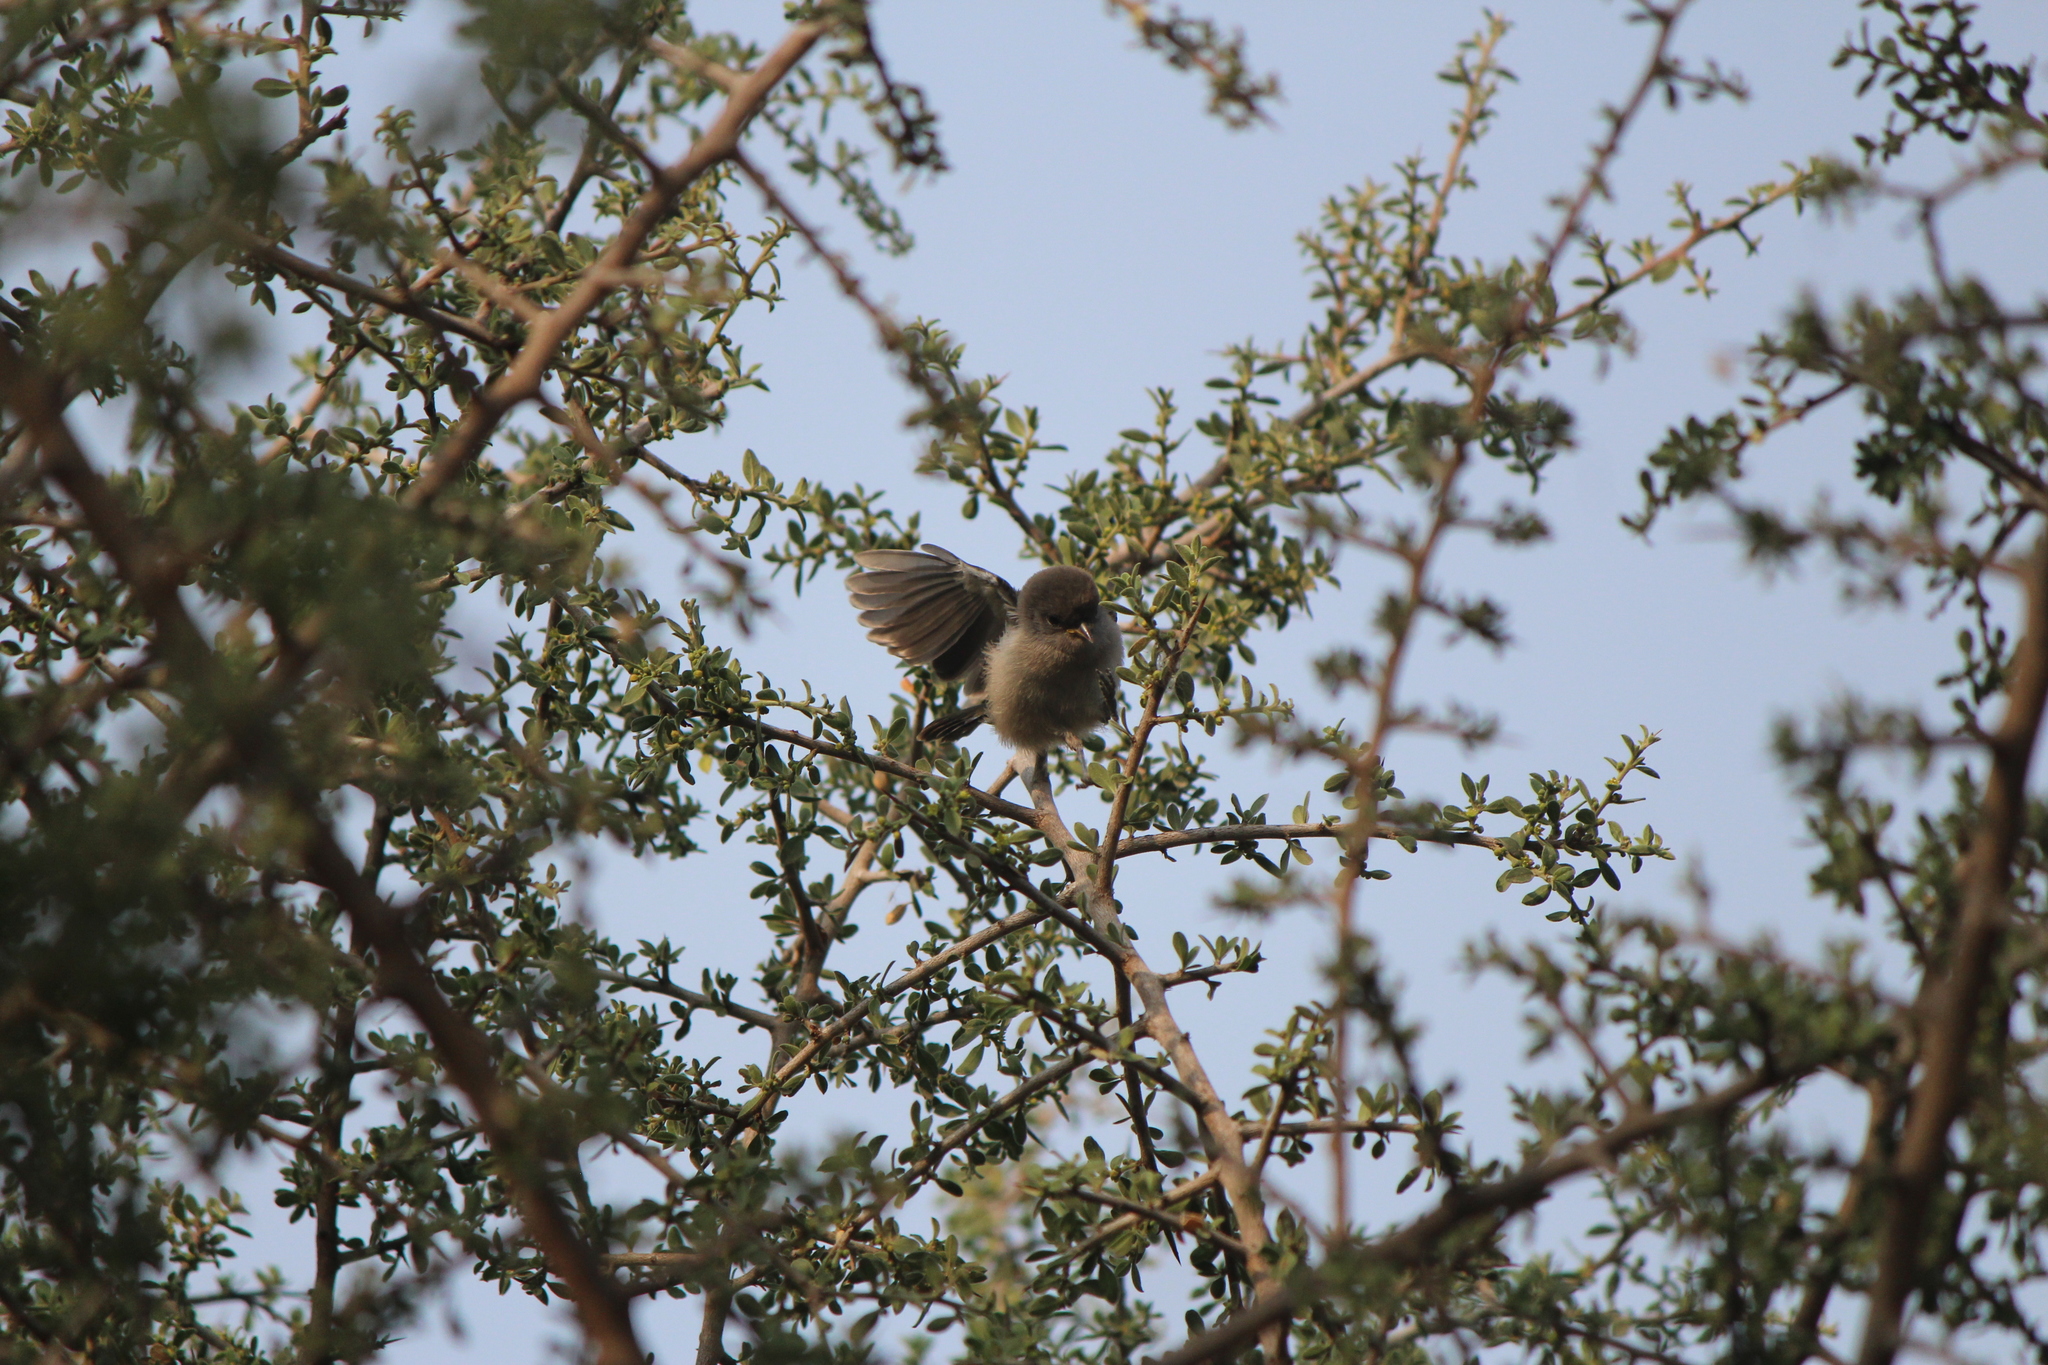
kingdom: Animalia
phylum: Chordata
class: Aves
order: Passeriformes
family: Remizidae
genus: Auriparus
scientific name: Auriparus flaviceps
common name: Verdin
